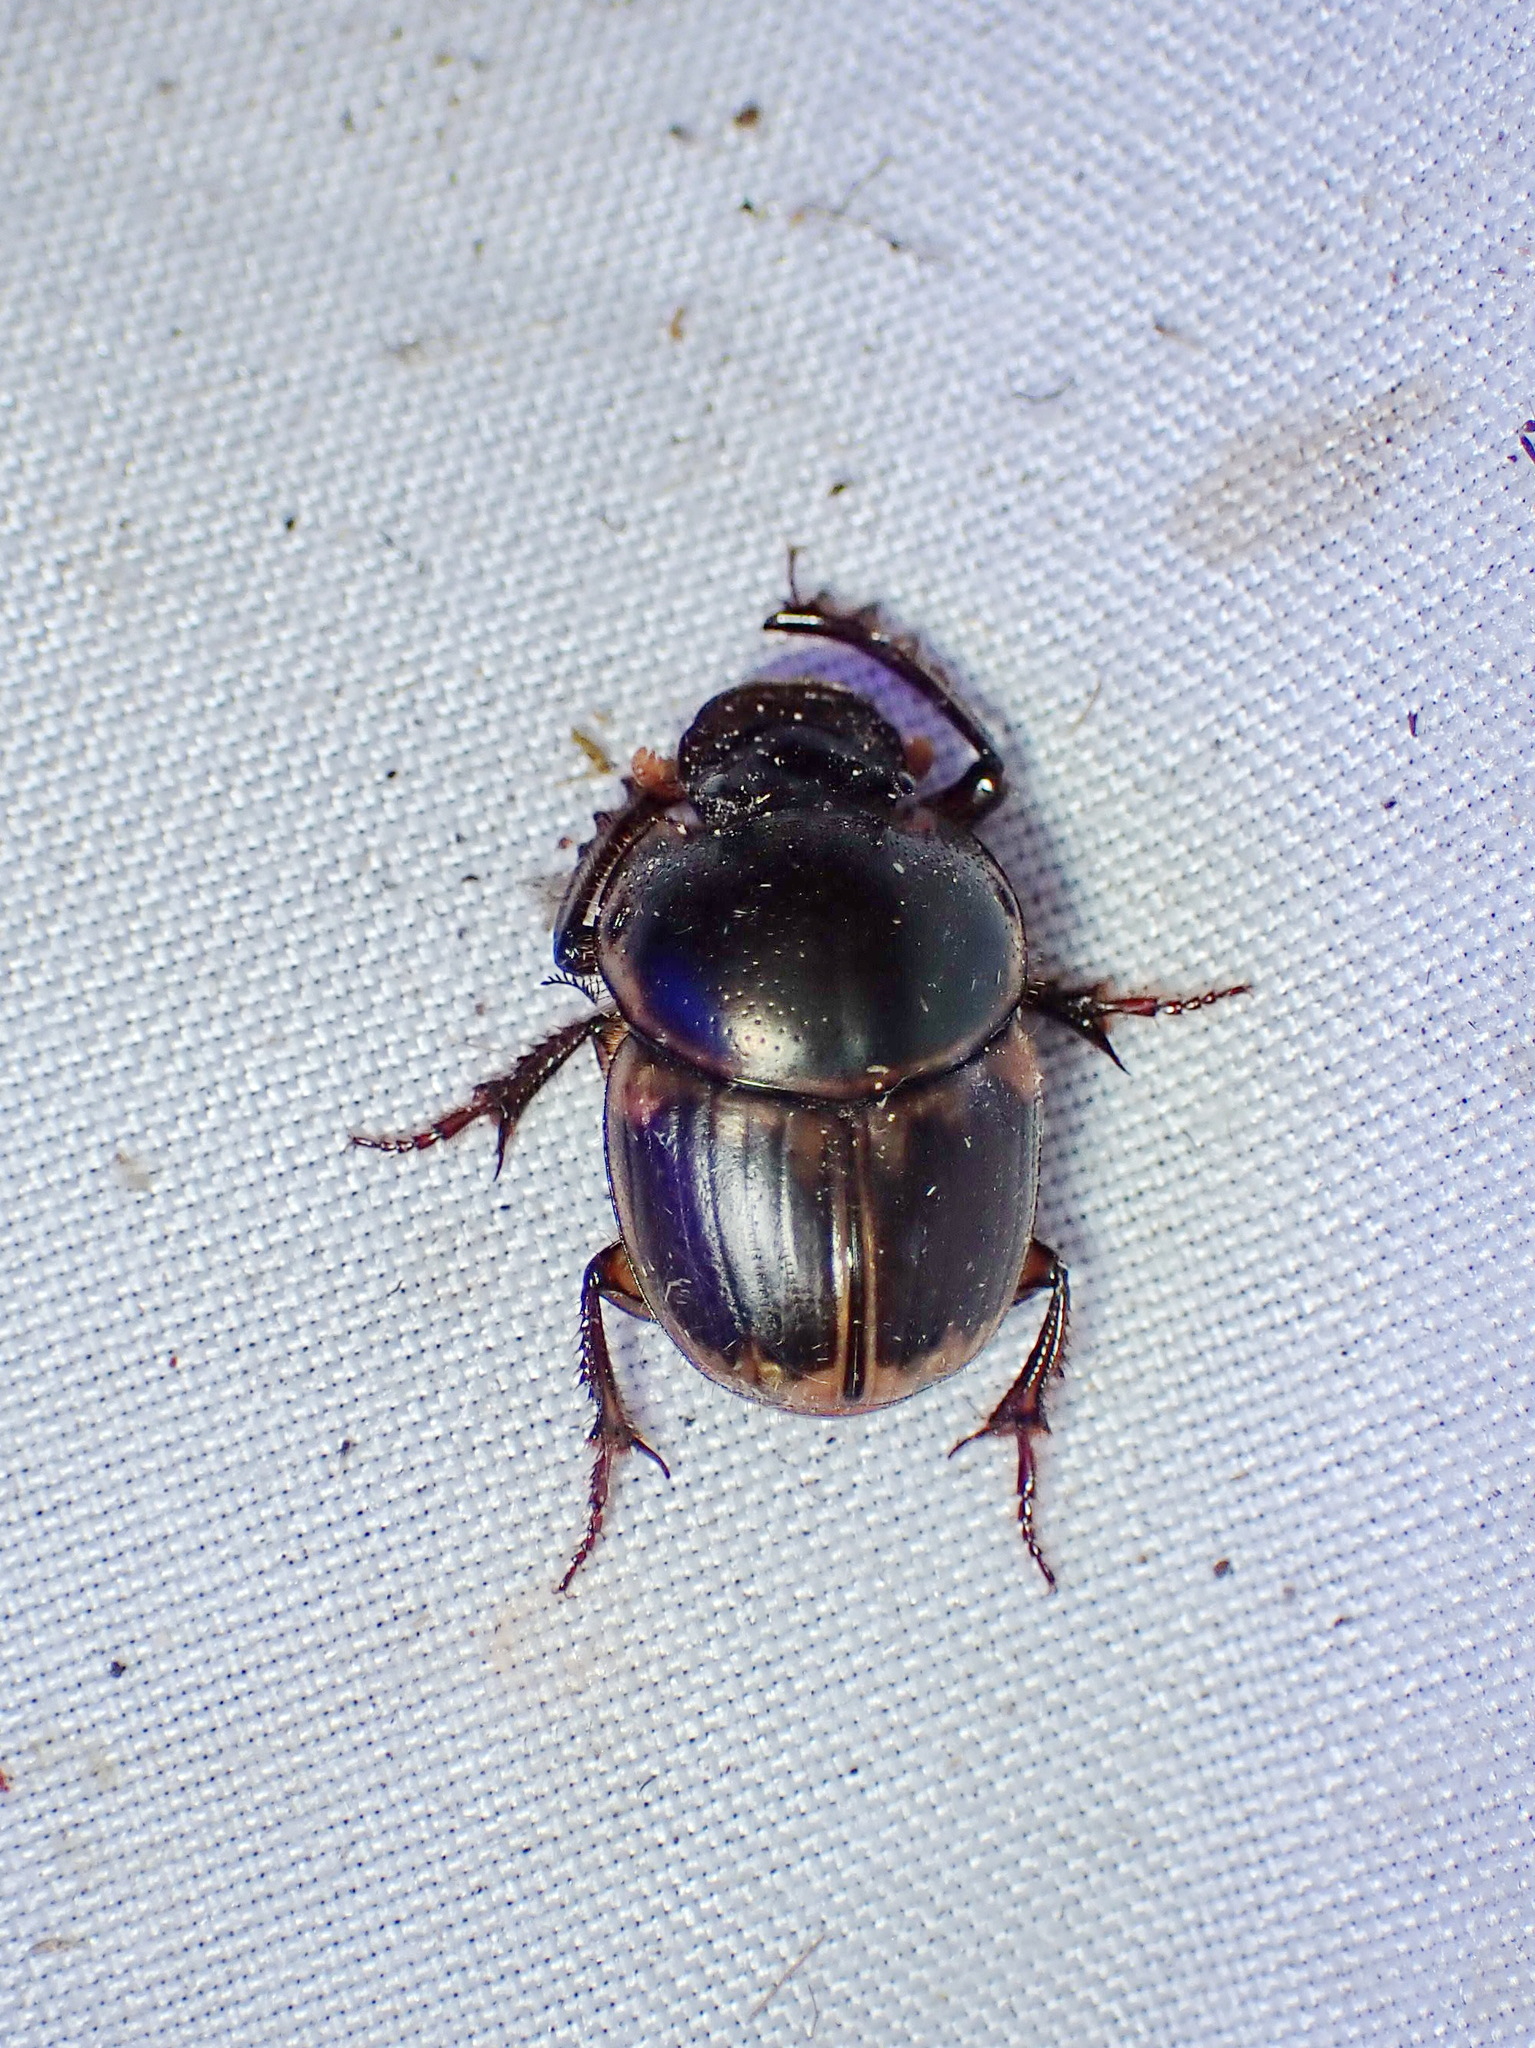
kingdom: Animalia
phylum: Arthropoda
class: Insecta
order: Coleoptera
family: Scarabaeidae
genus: Digitonthophagus
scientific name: Digitonthophagus gazella
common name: Brown dung beetle
